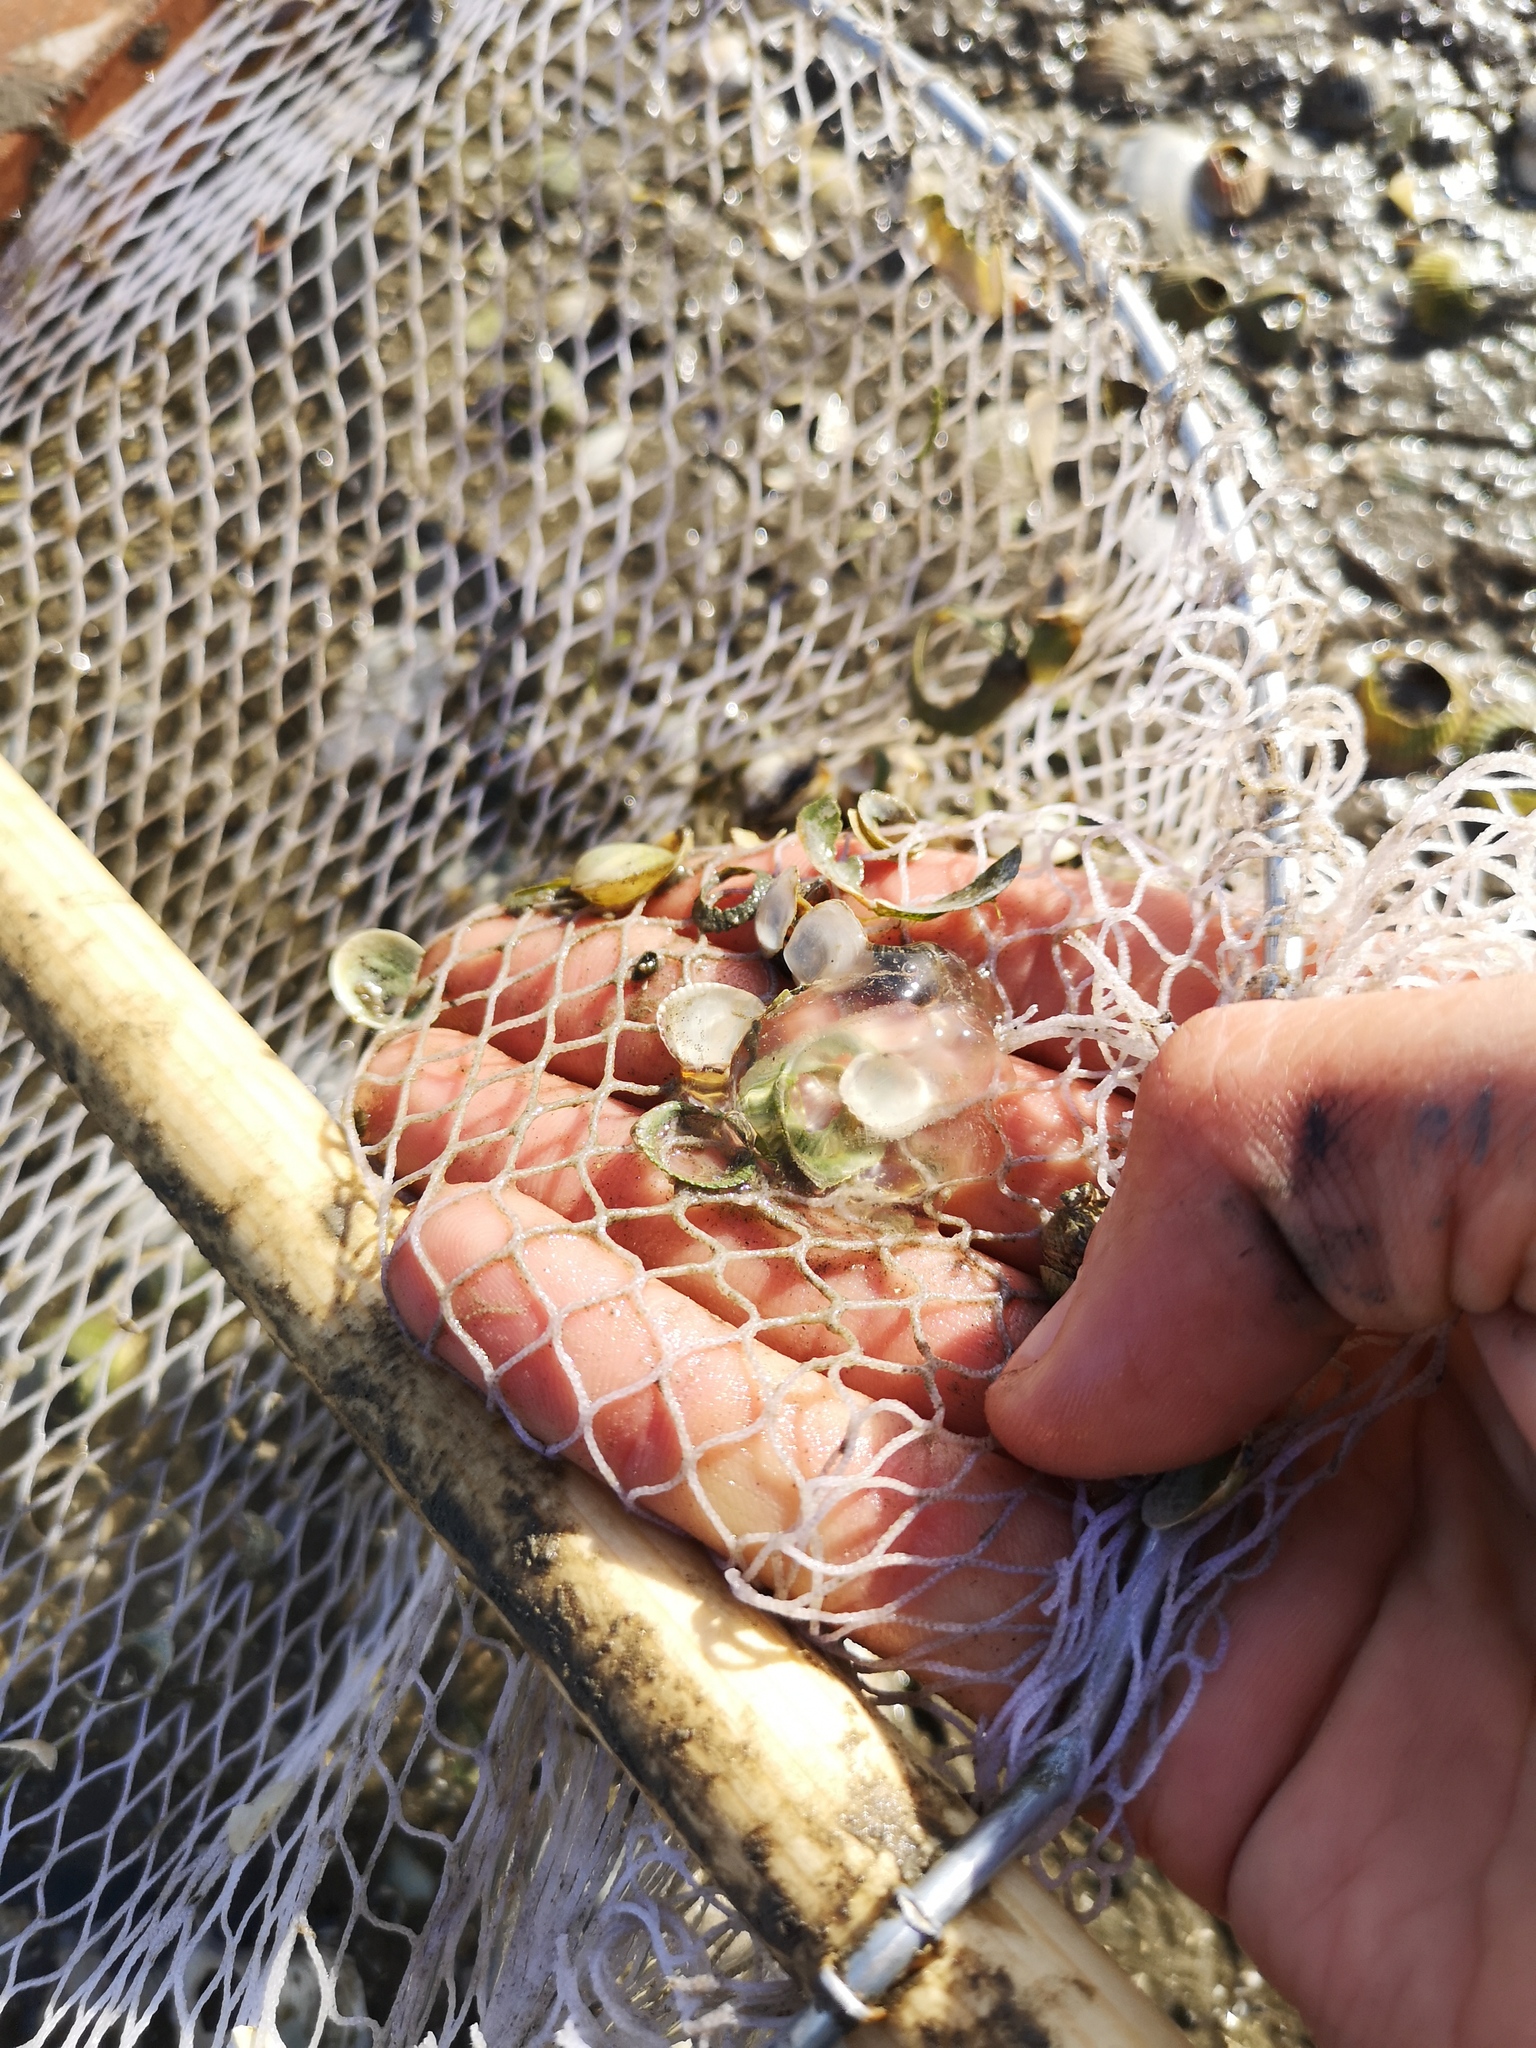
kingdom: Animalia
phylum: Ctenophora
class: Tentaculata
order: Cydippida
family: Pleurobrachiidae
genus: Pleurobrachia
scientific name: Pleurobrachia pileus
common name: Sea gooseberry
